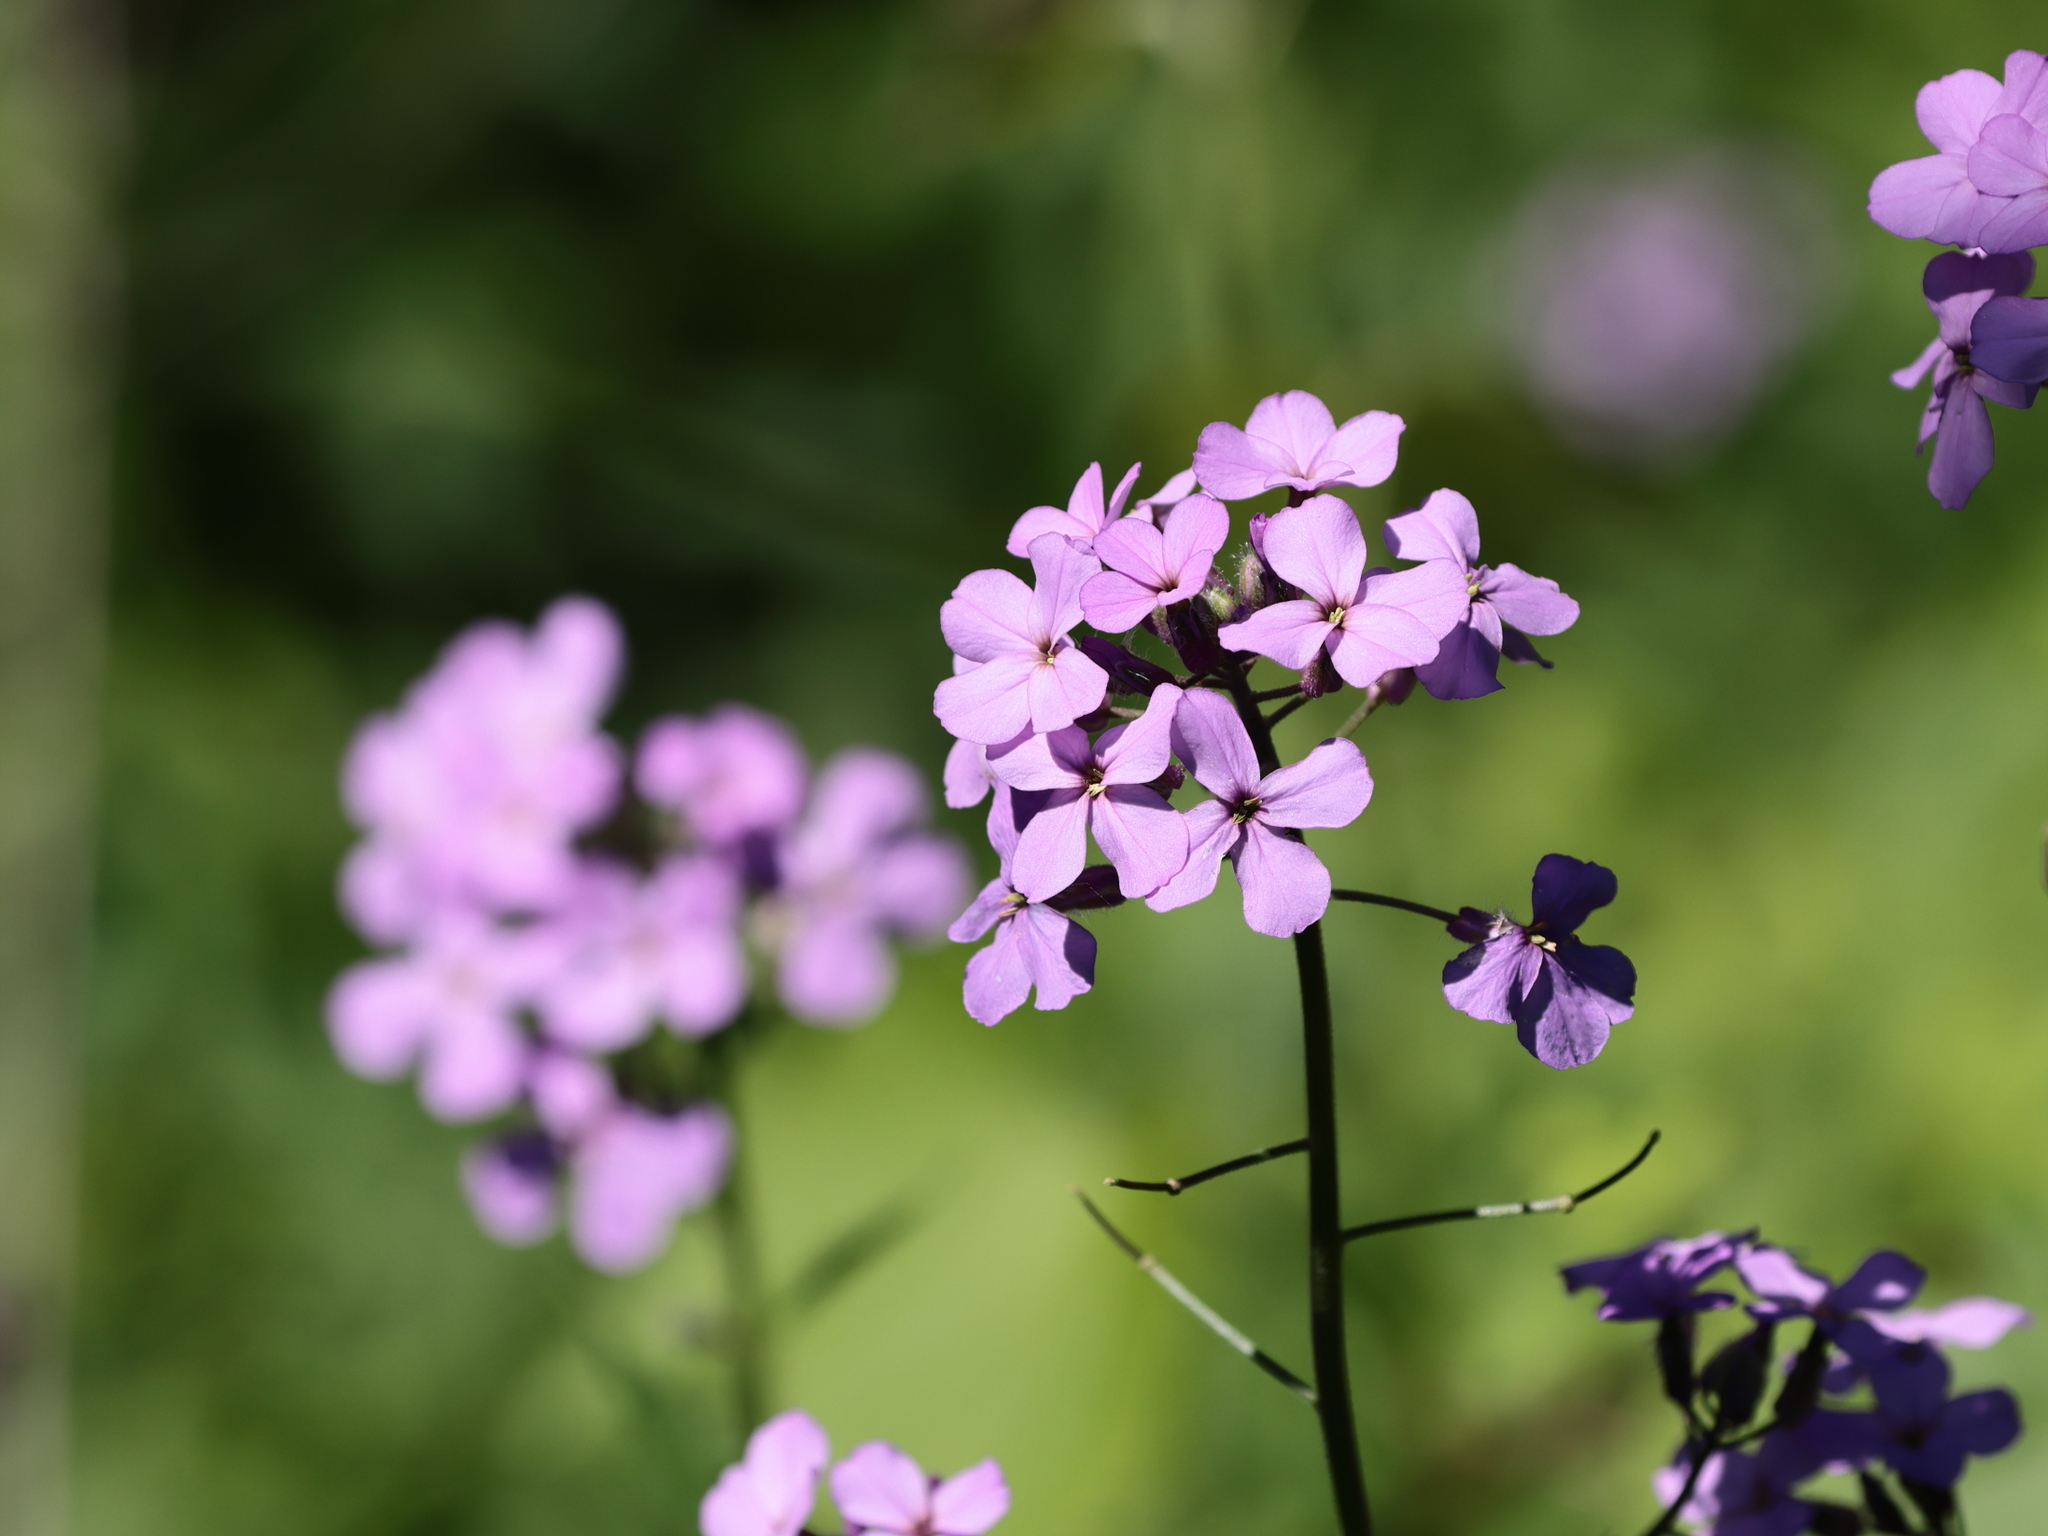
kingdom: Plantae
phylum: Tracheophyta
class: Magnoliopsida
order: Brassicales
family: Brassicaceae
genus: Hesperis
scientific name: Hesperis matronalis
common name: Dame's-violet
